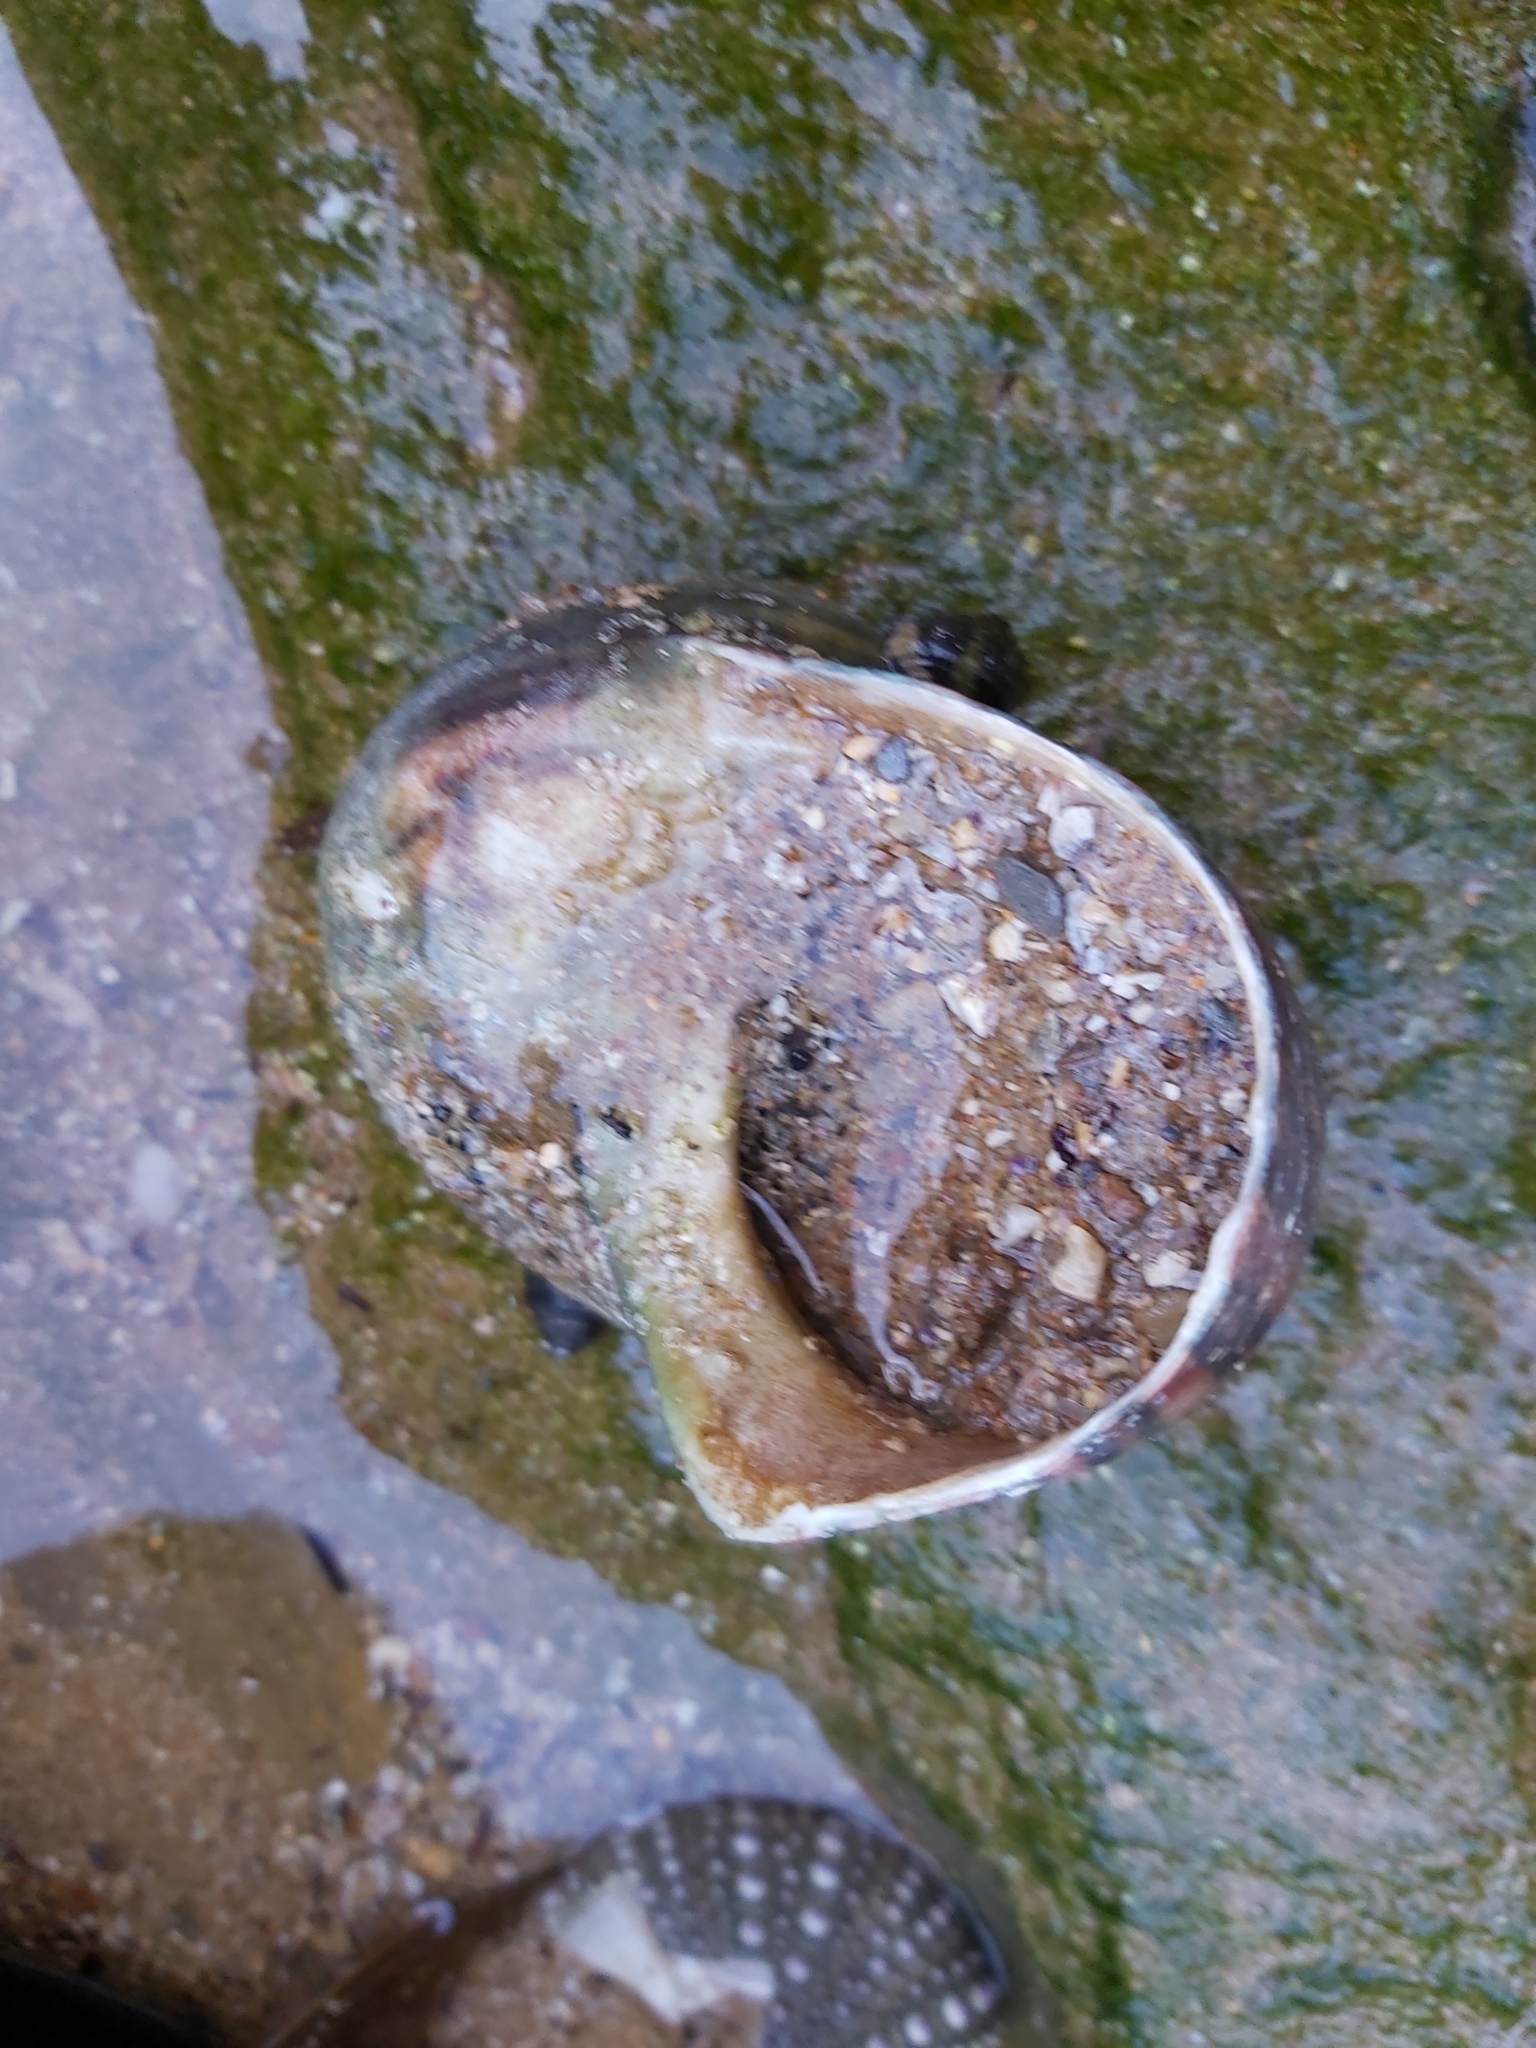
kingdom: Animalia
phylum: Mollusca
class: Gastropoda
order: Trochida
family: Turbinidae
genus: Turbo
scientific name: Turbo militaris
